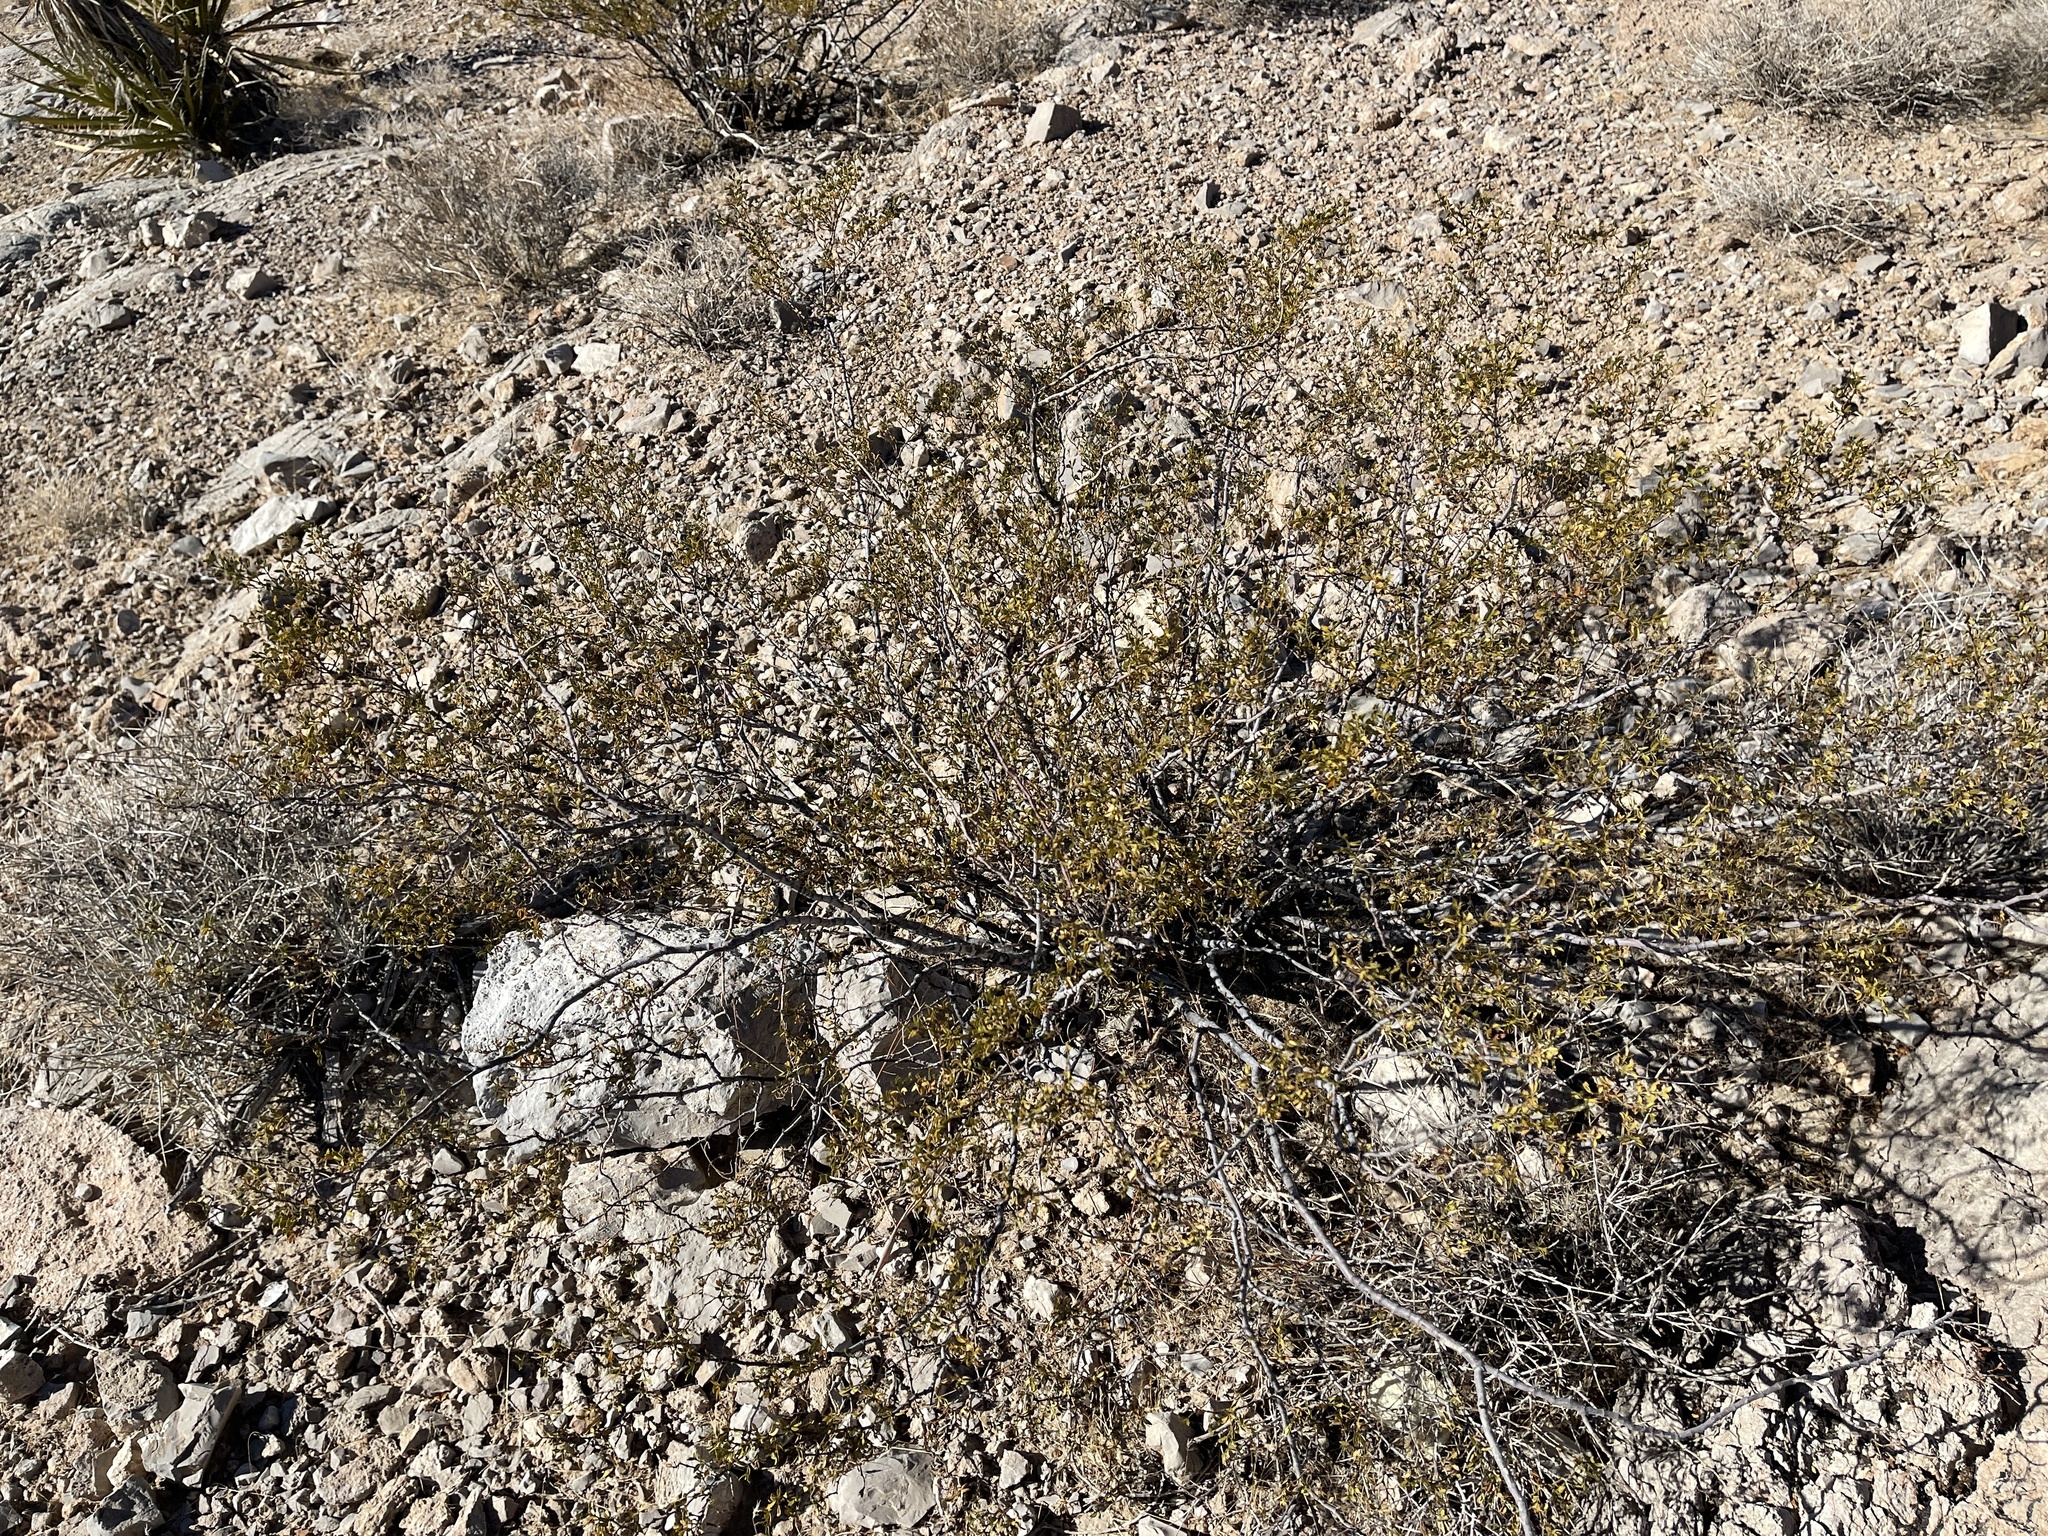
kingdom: Plantae
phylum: Tracheophyta
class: Magnoliopsida
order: Zygophyllales
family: Zygophyllaceae
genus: Larrea
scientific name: Larrea tridentata
